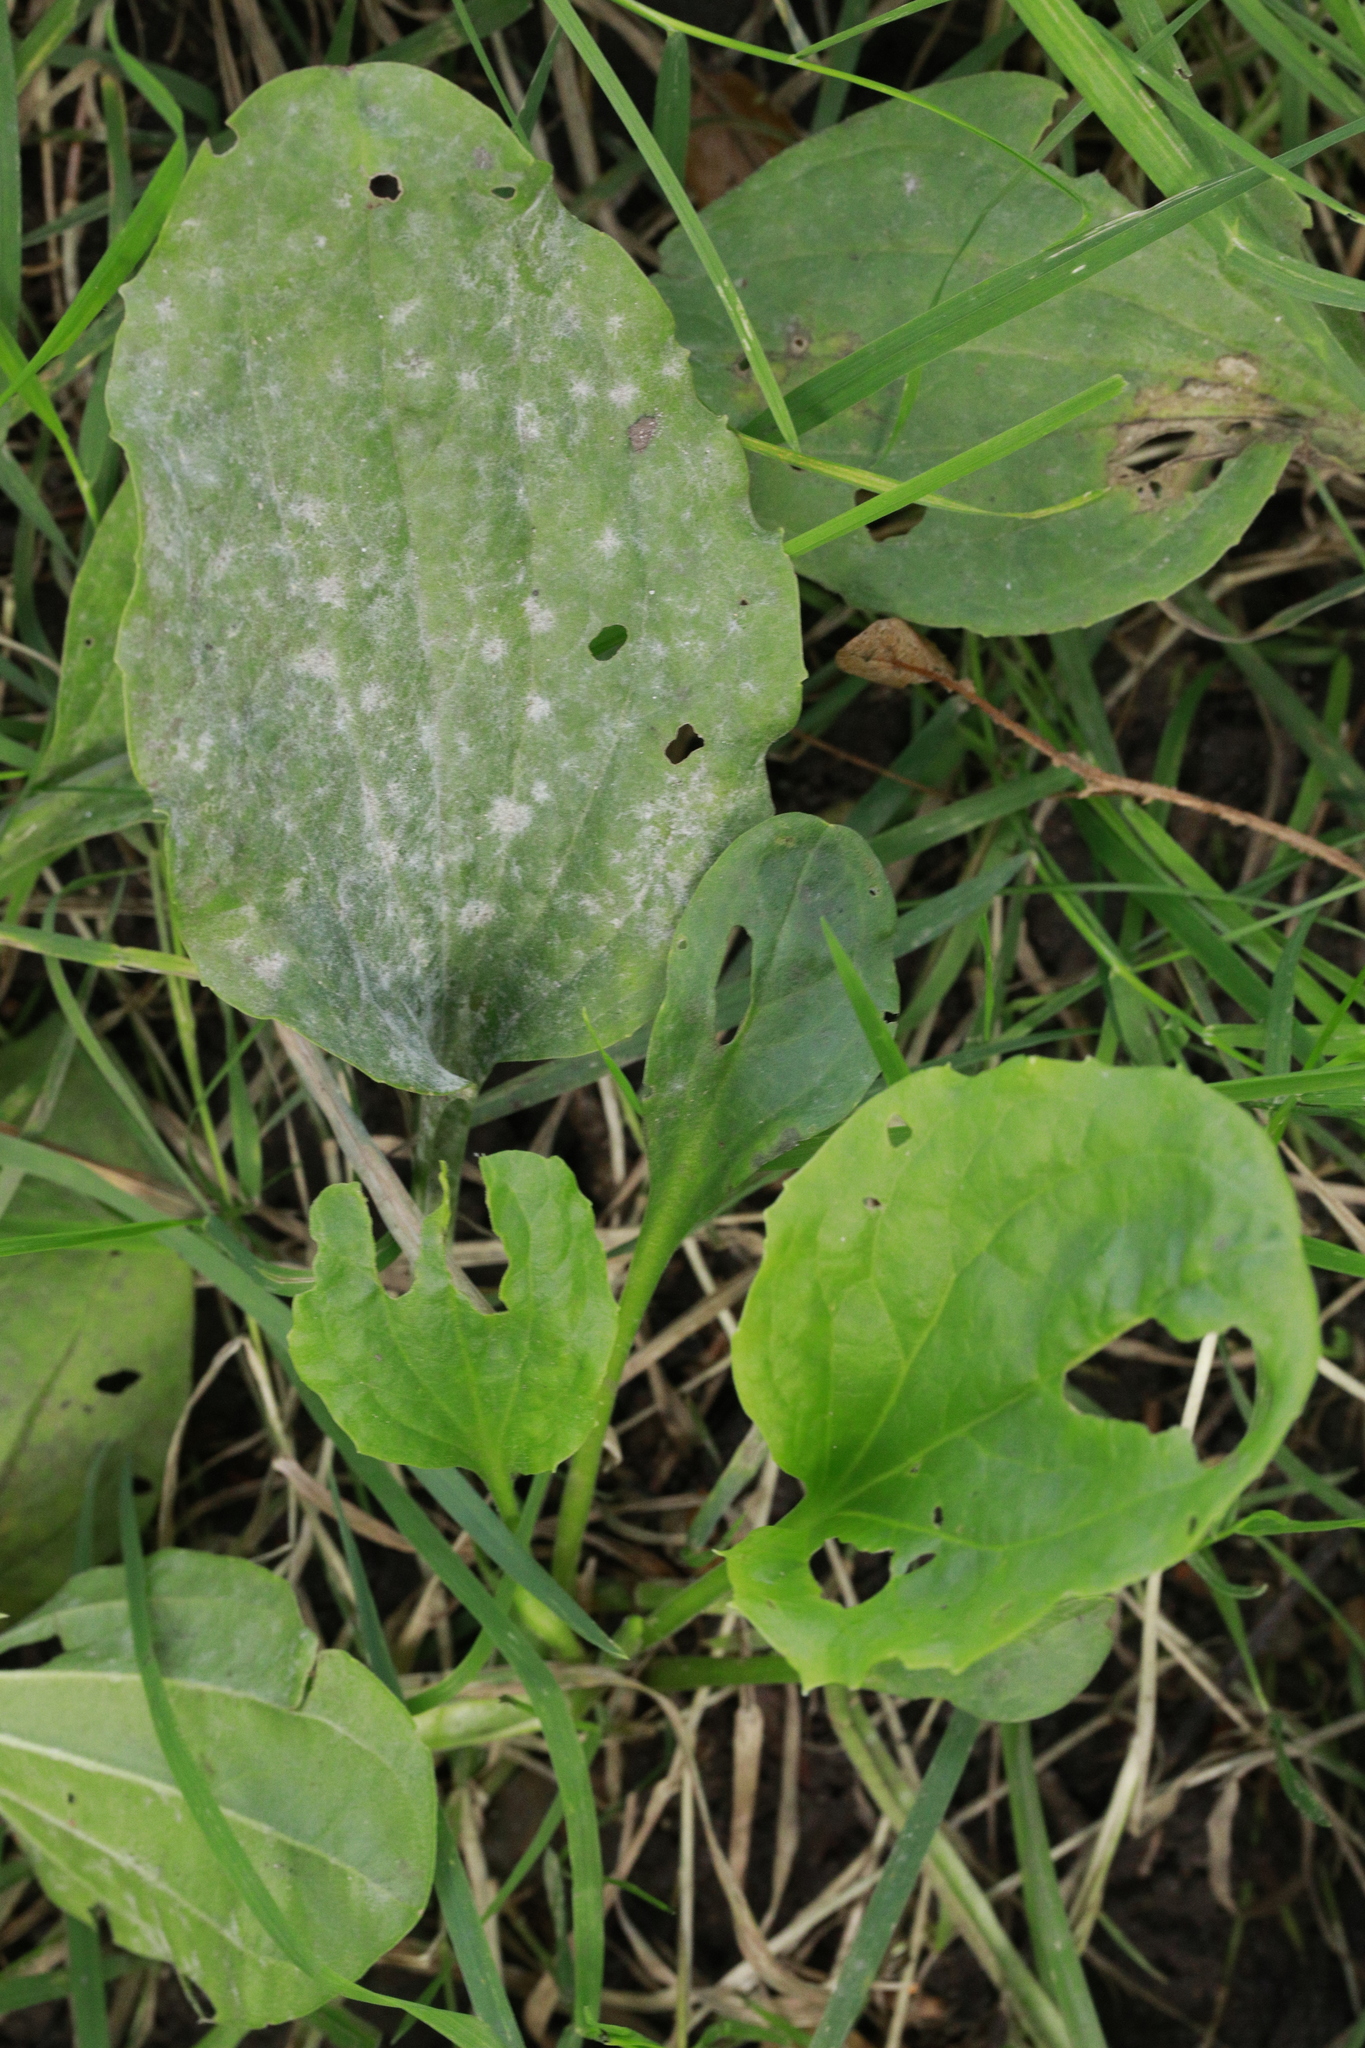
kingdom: Fungi
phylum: Ascomycota
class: Leotiomycetes
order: Helotiales
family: Erysiphaceae
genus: Golovinomyces
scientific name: Golovinomyces sordidus
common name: Plantain mildew
